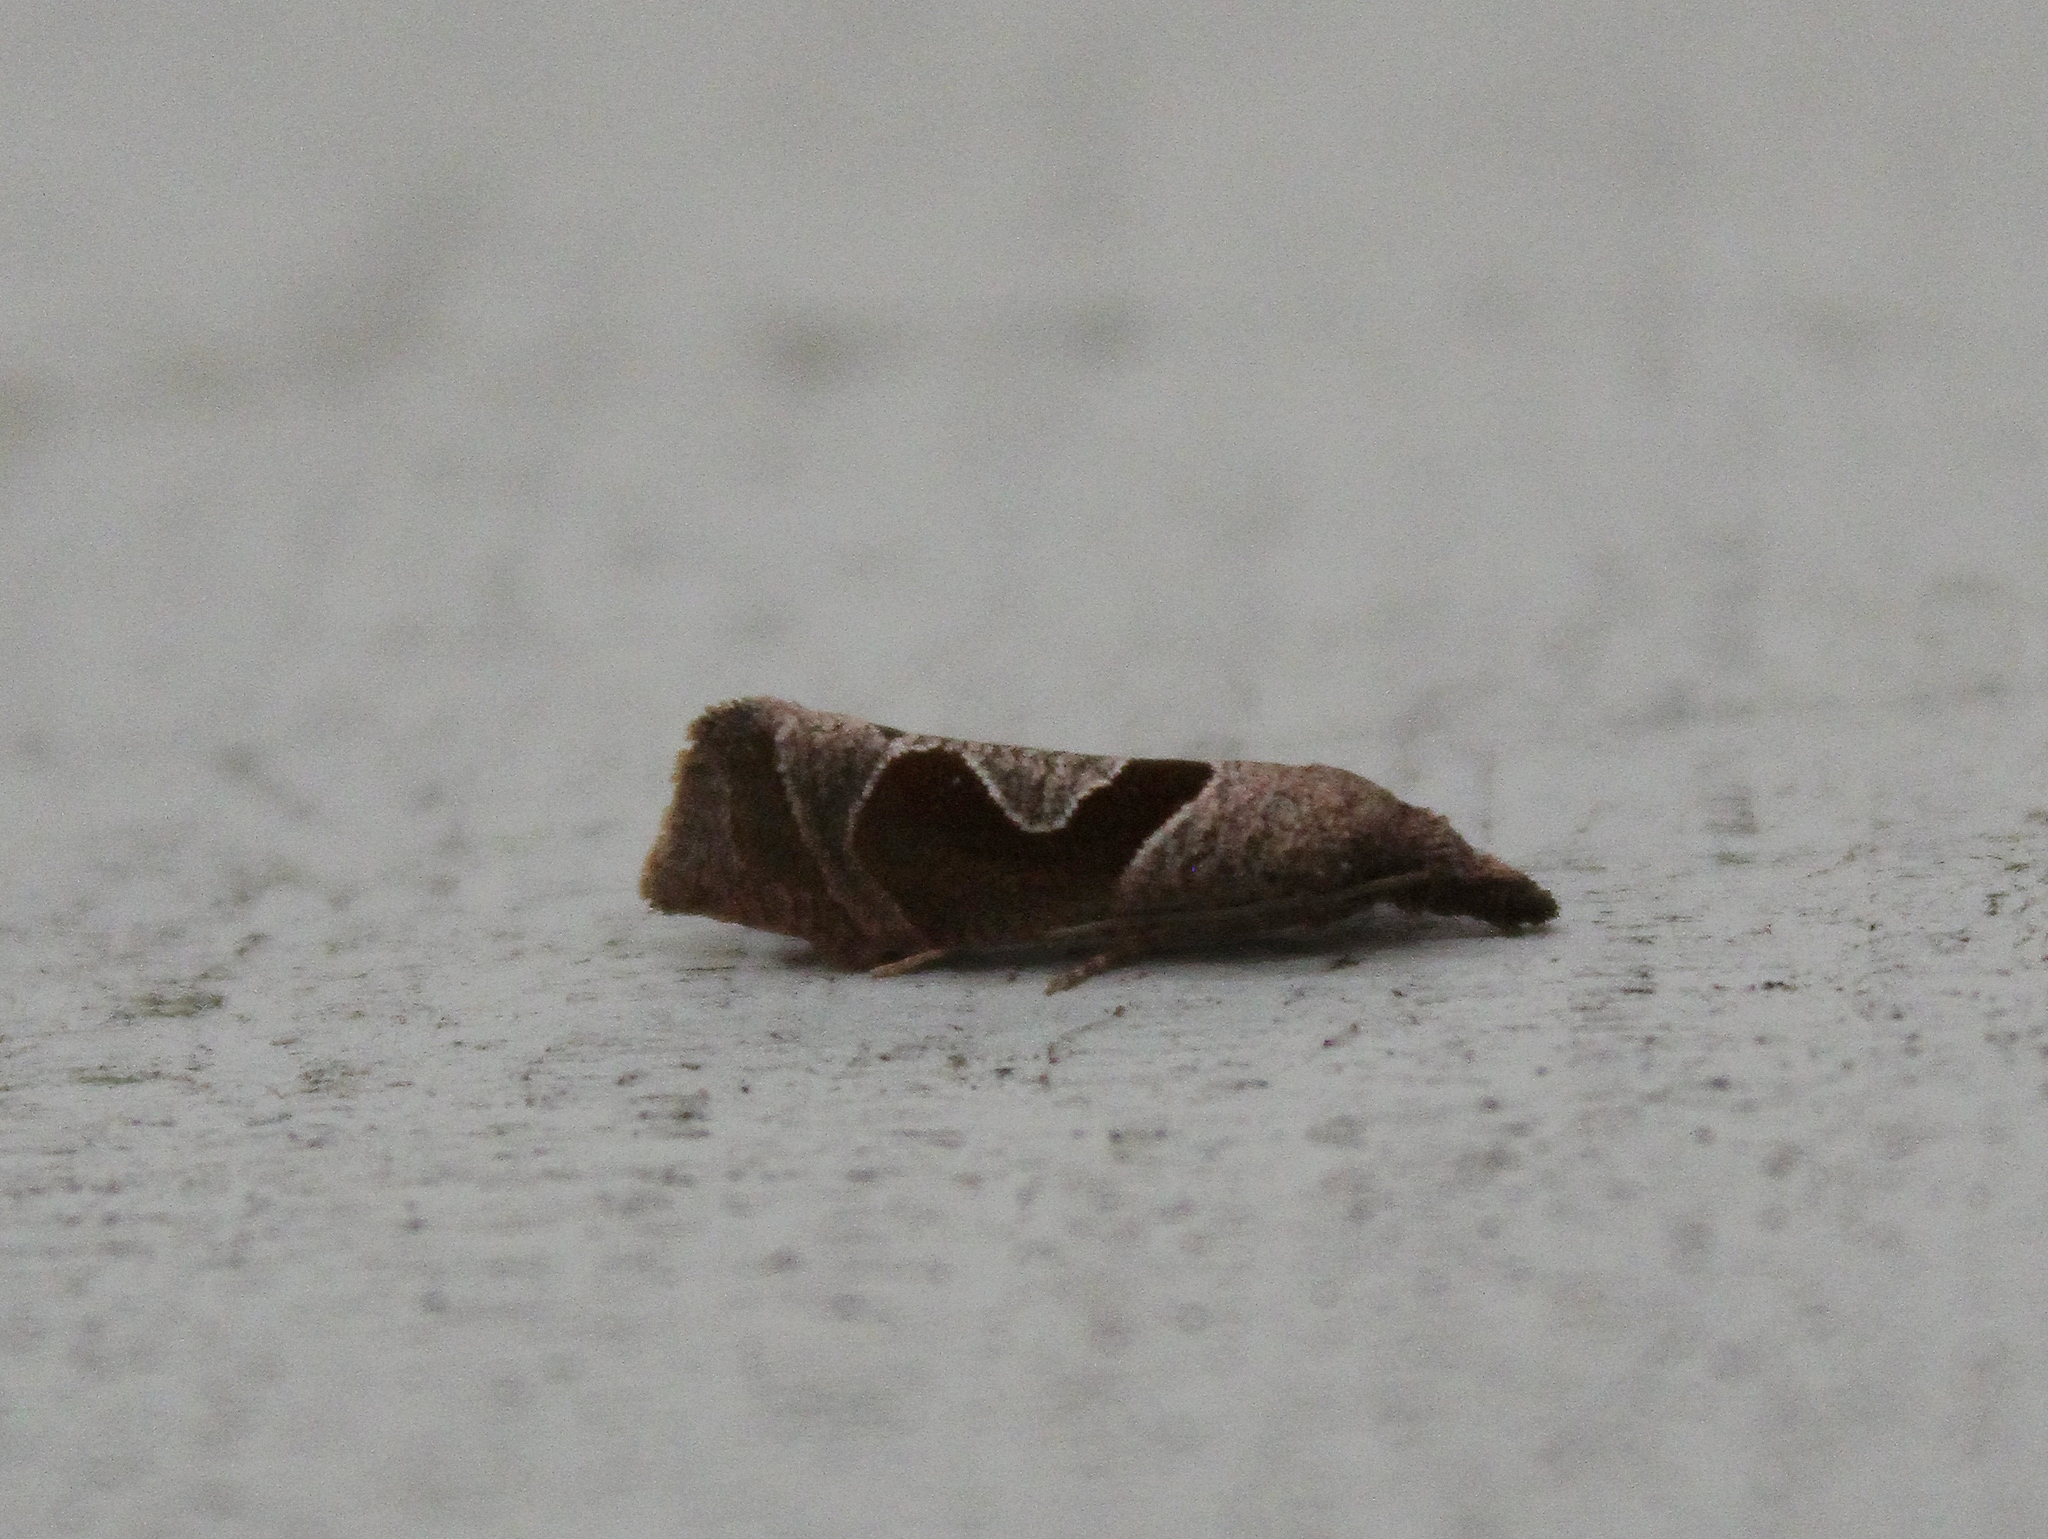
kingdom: Animalia
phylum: Arthropoda
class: Insecta
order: Lepidoptera
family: Tortricidae
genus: Pelochrista
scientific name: Pelochrista similiana
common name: Similar eucosma
